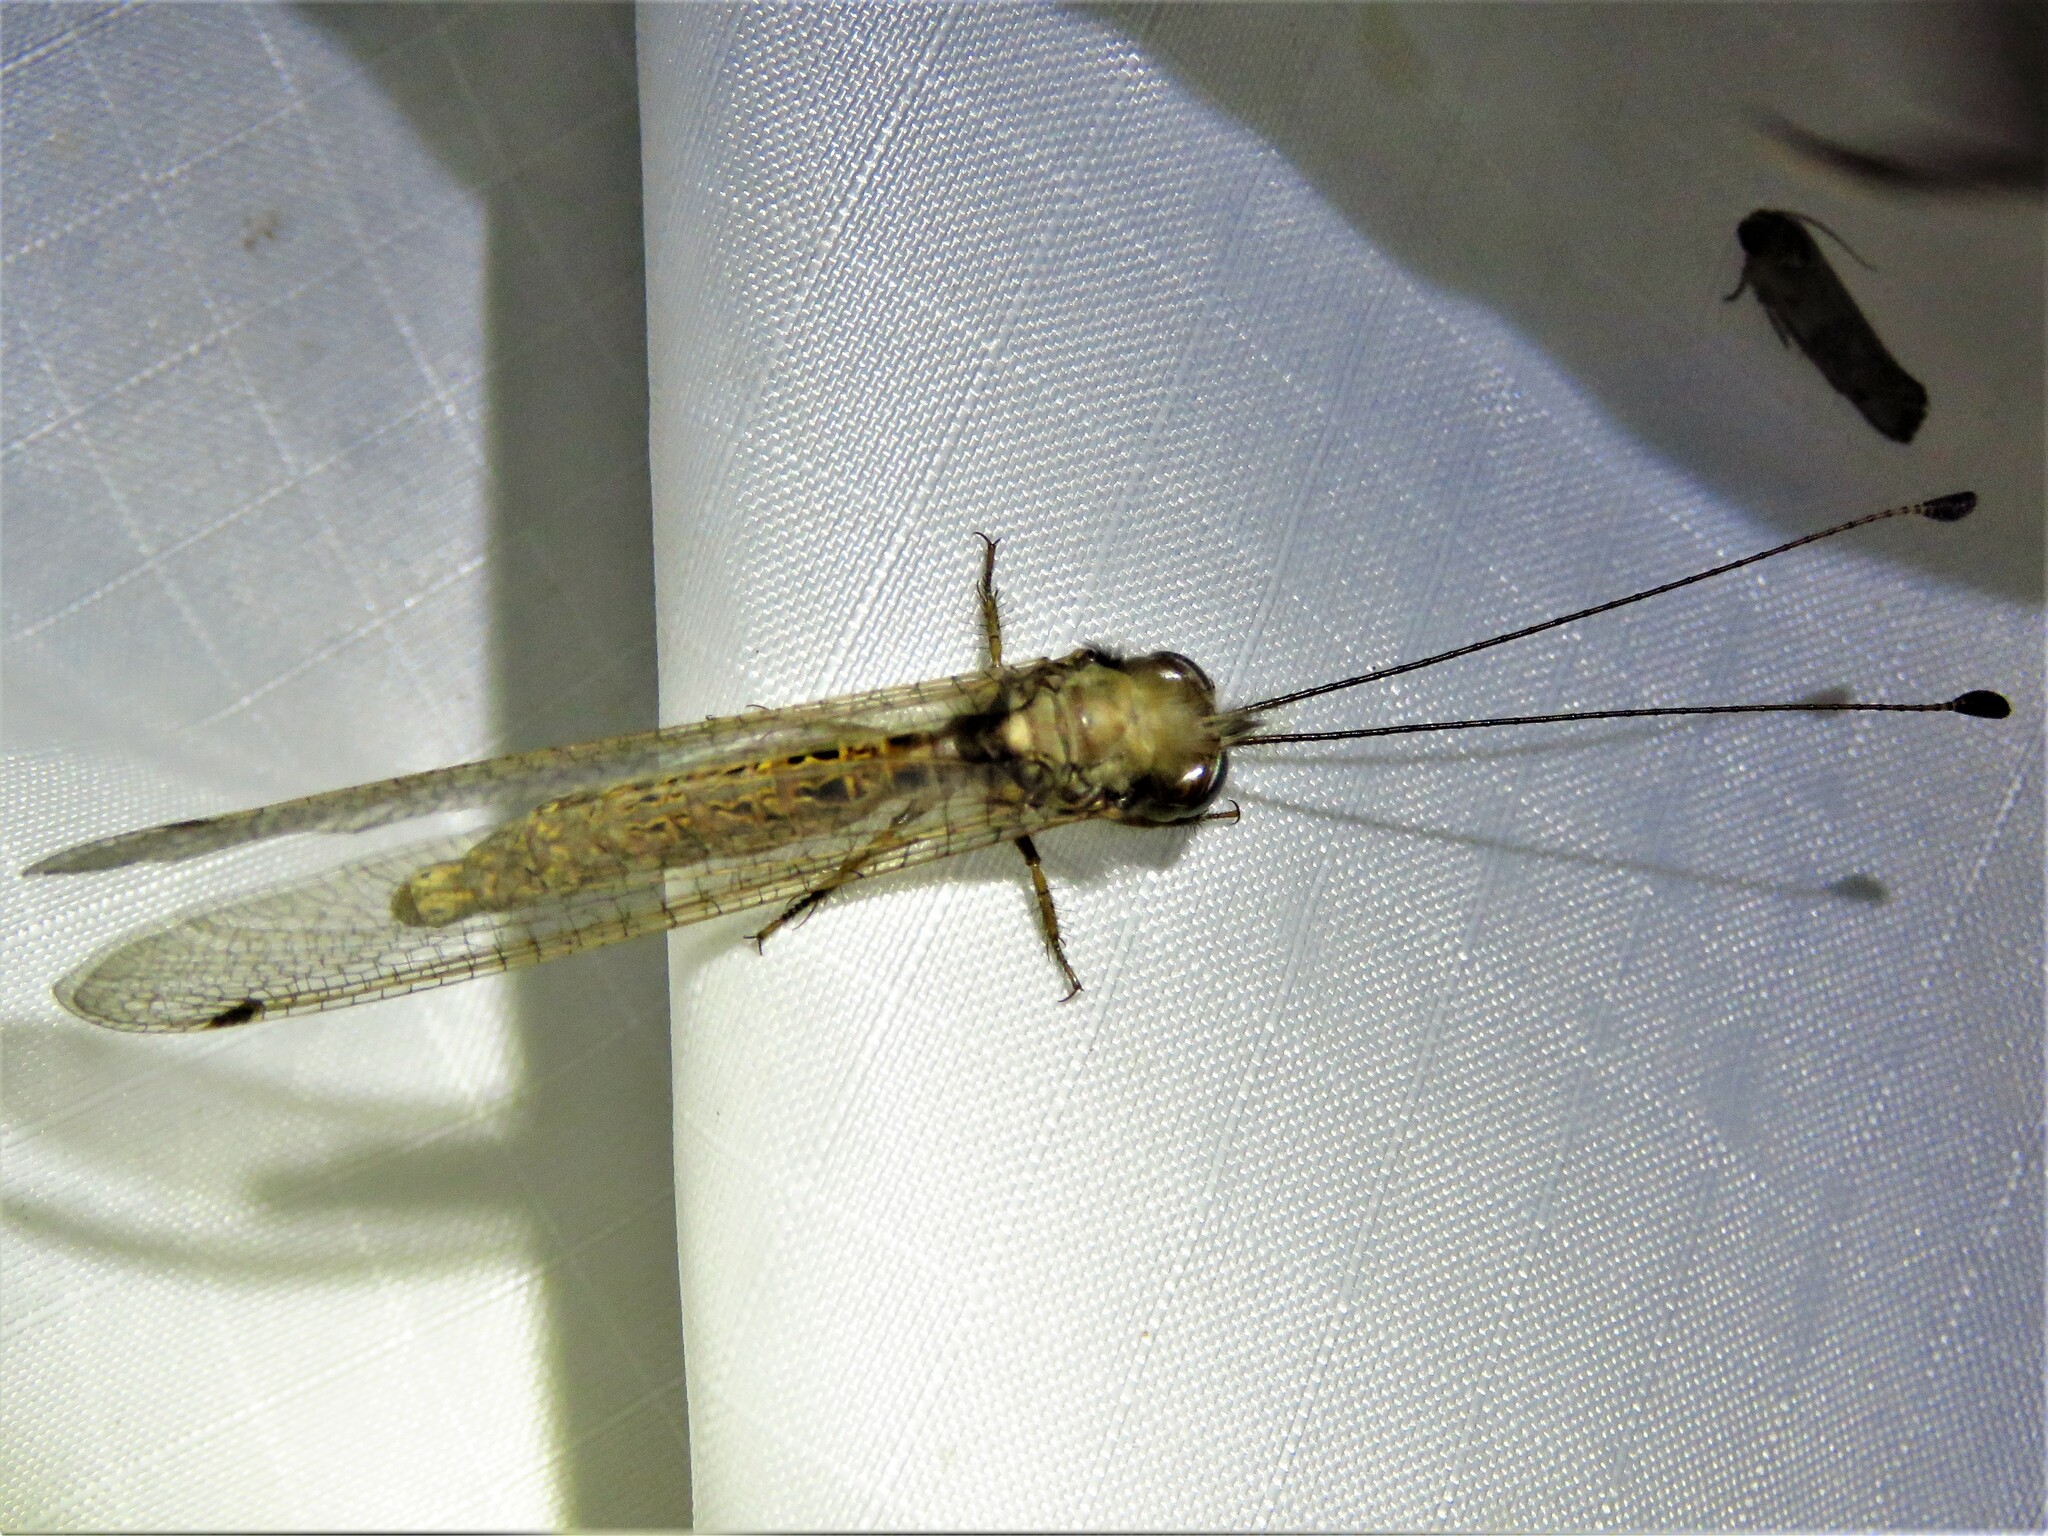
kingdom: Animalia
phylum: Arthropoda
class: Insecta
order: Neuroptera
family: Ascalaphidae
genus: Ululodes
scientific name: Ululodes macleayanus
